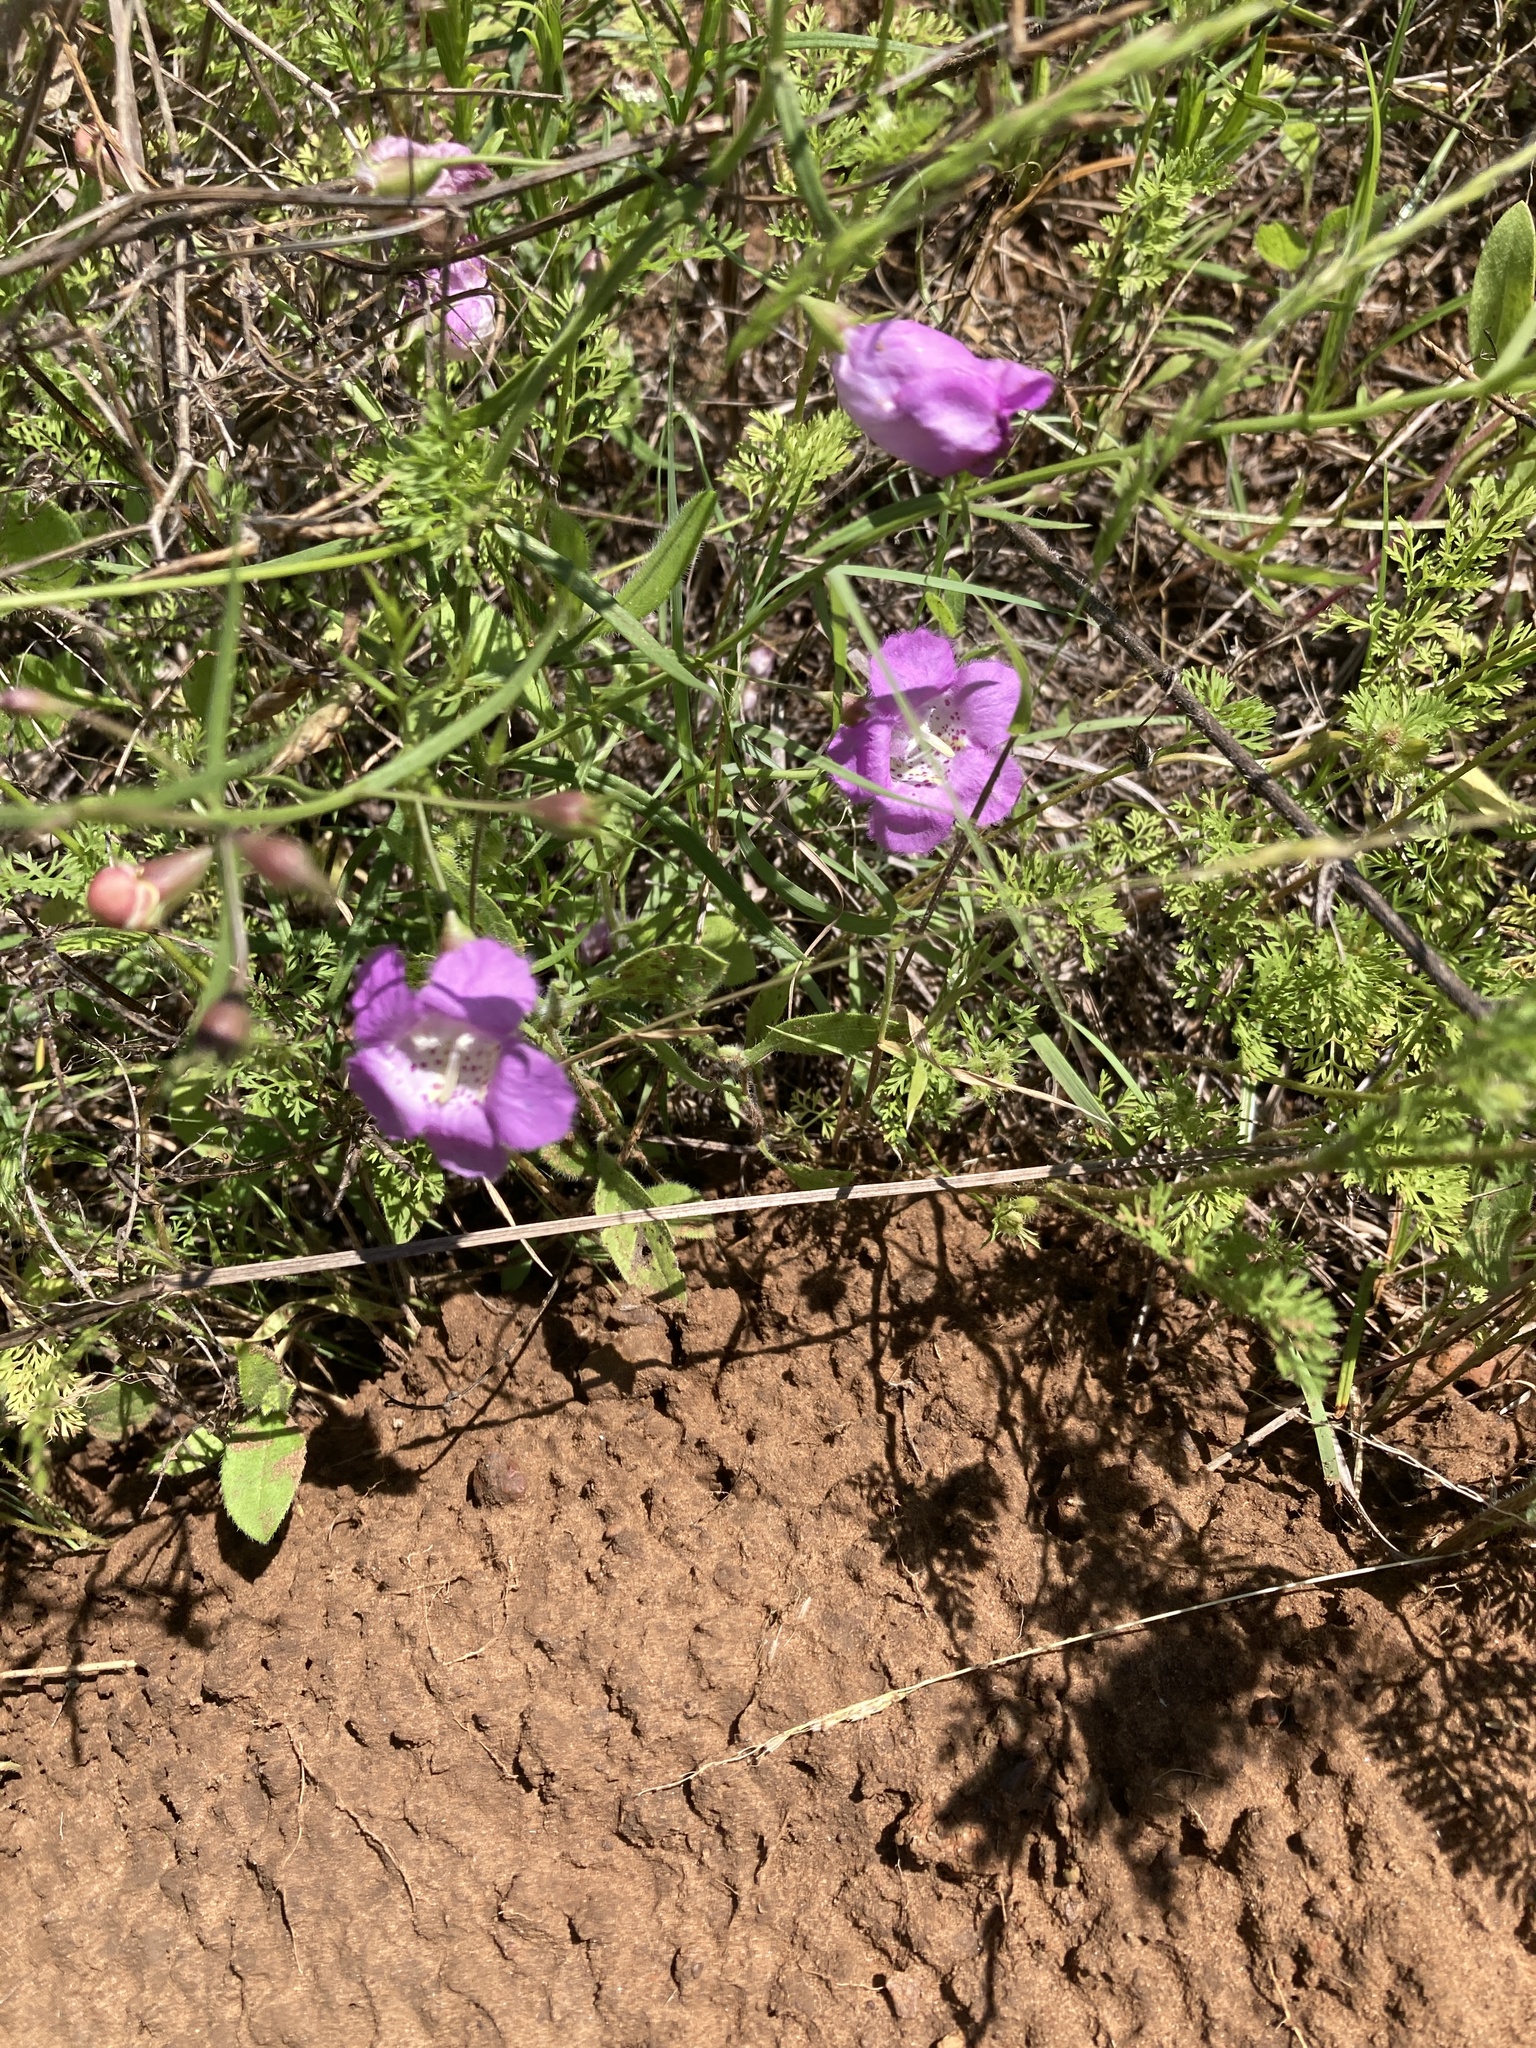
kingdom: Plantae
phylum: Tracheophyta
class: Magnoliopsida
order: Lamiales
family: Orobanchaceae
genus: Agalinis
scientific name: Agalinis heterophylla
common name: Prairie agalinis
